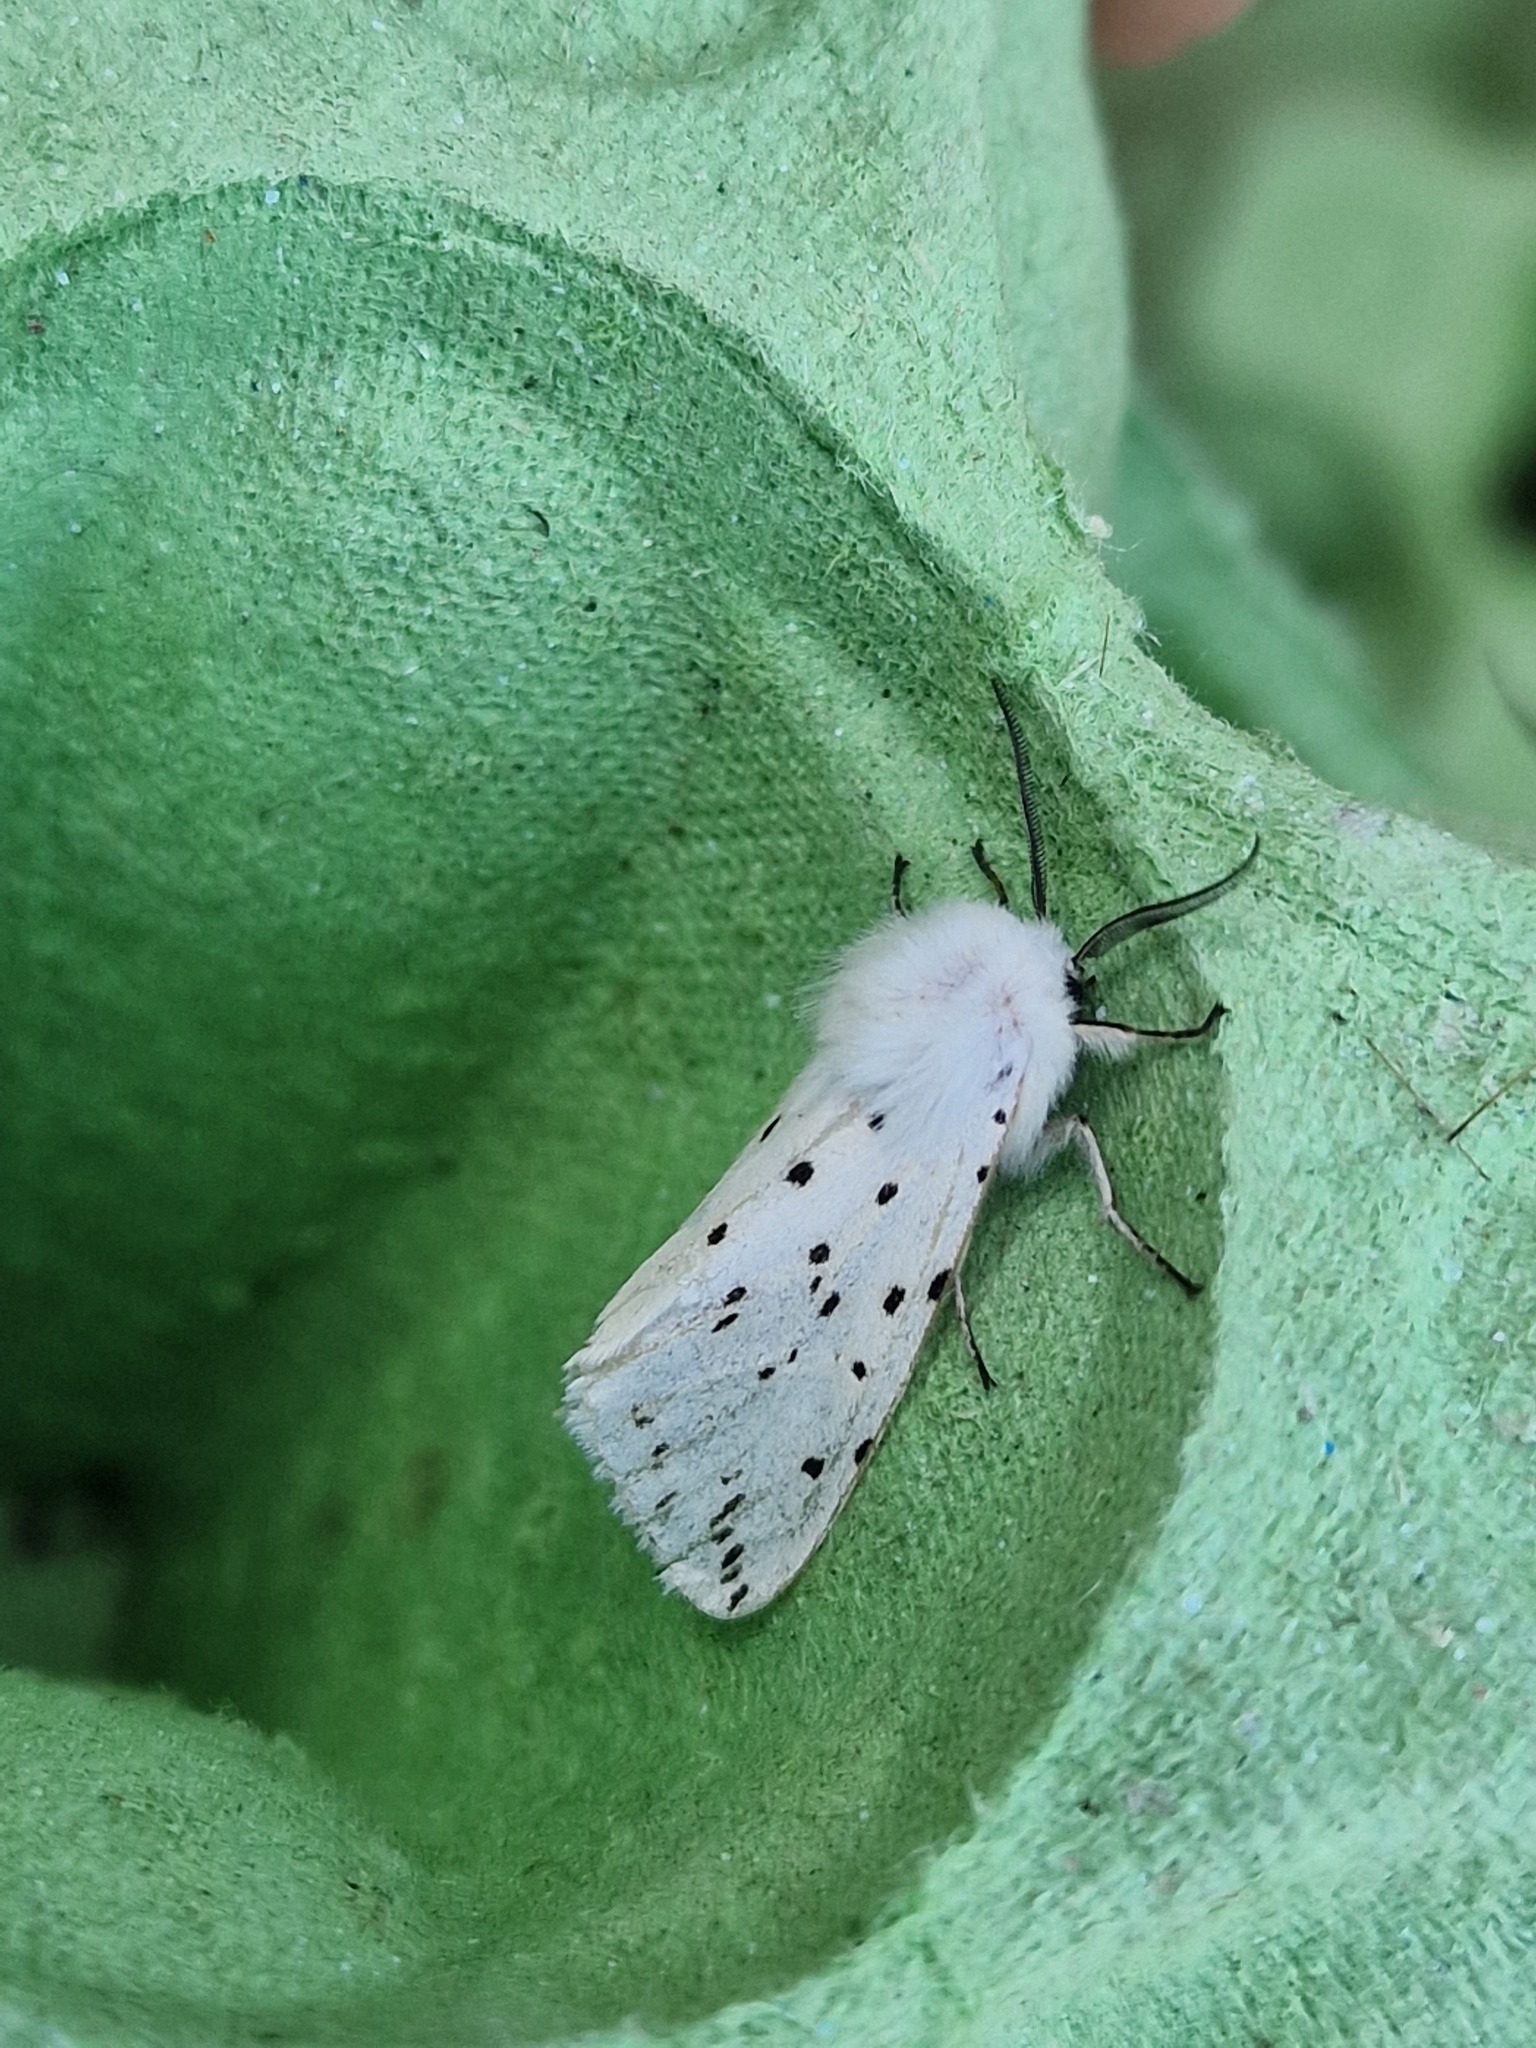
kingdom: Animalia
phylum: Arthropoda
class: Insecta
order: Lepidoptera
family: Erebidae
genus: Spilosoma
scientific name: Spilosoma lubricipeda
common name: White ermine
